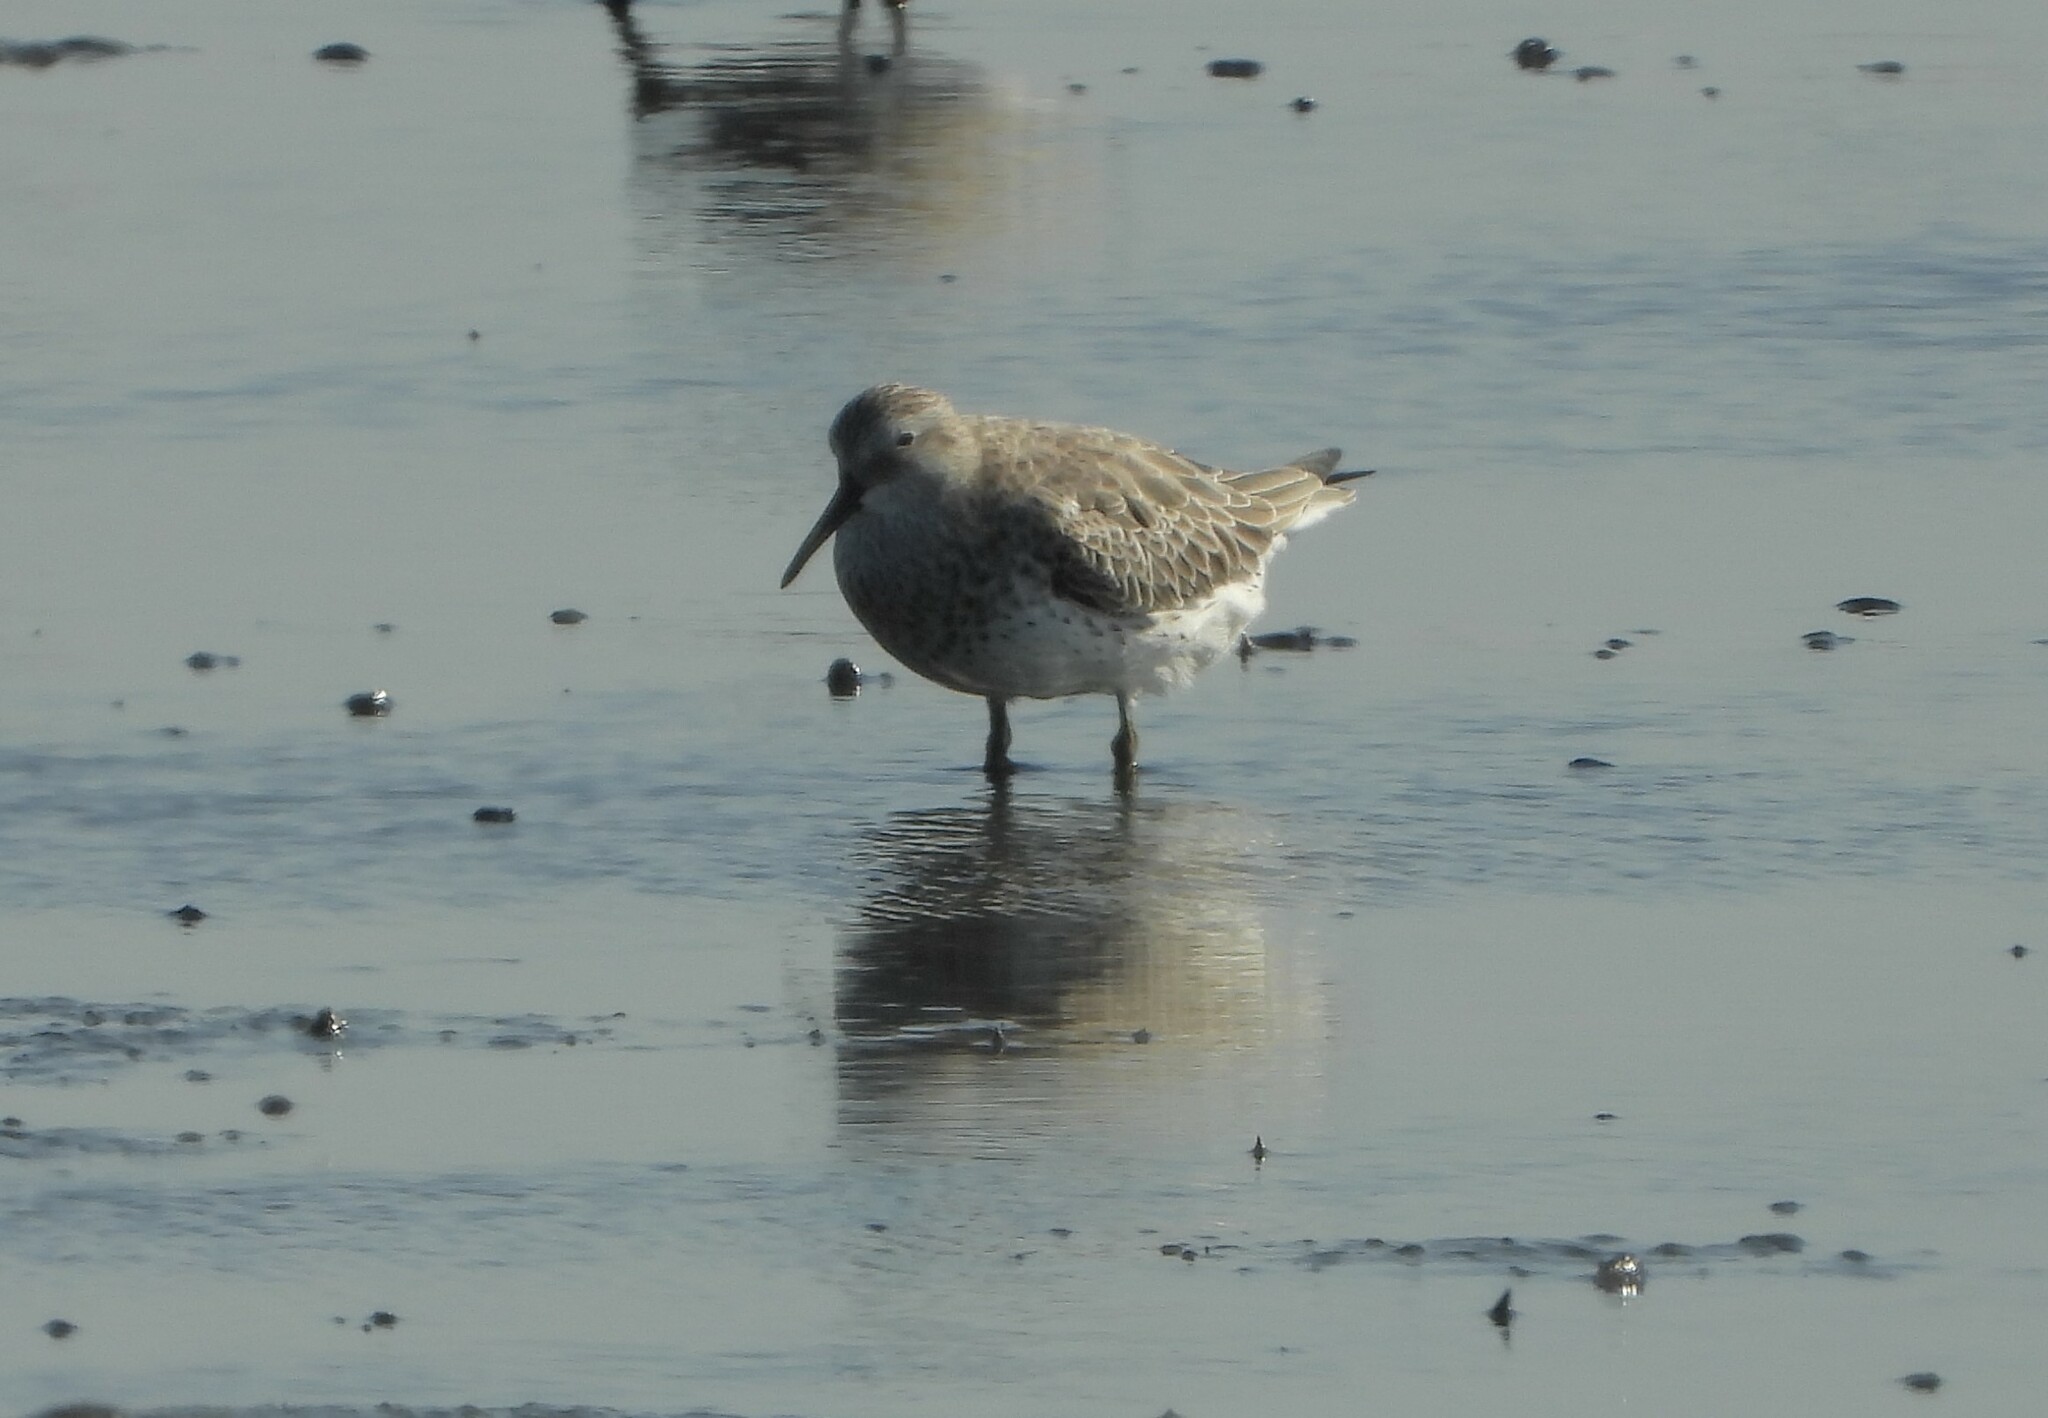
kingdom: Animalia
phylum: Chordata
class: Aves
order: Charadriiformes
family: Scolopacidae
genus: Calidris
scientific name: Calidris tenuirostris
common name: Great knot
